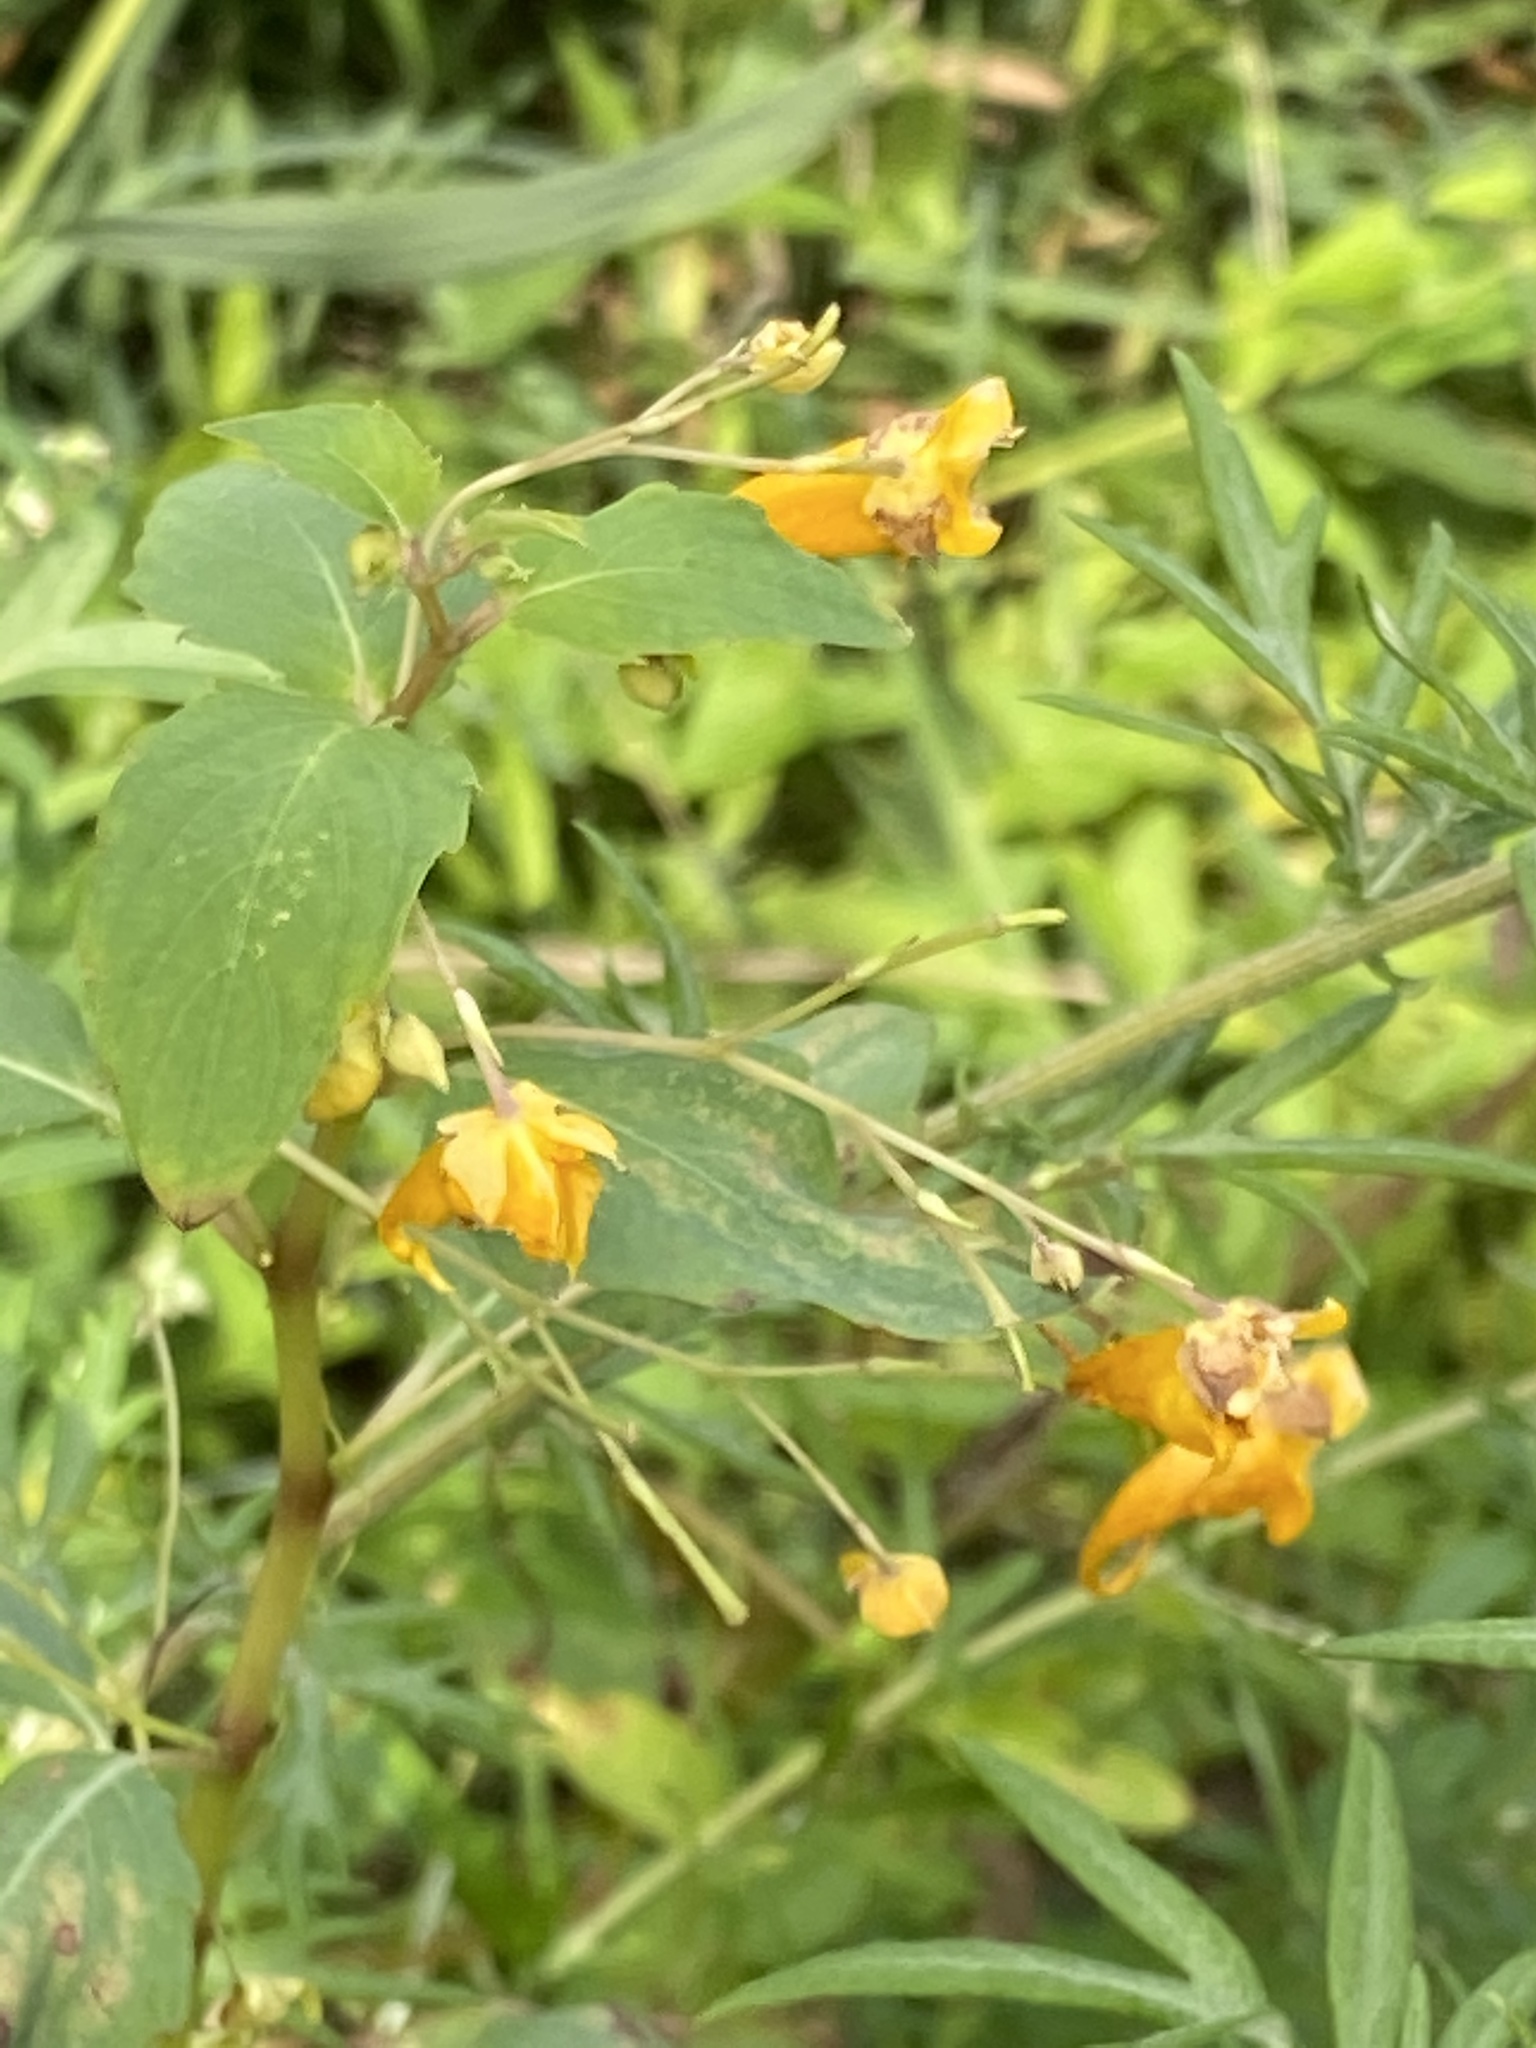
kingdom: Plantae
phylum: Tracheophyta
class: Magnoliopsida
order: Ericales
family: Balsaminaceae
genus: Impatiens
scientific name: Impatiens capensis
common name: Orange balsam
